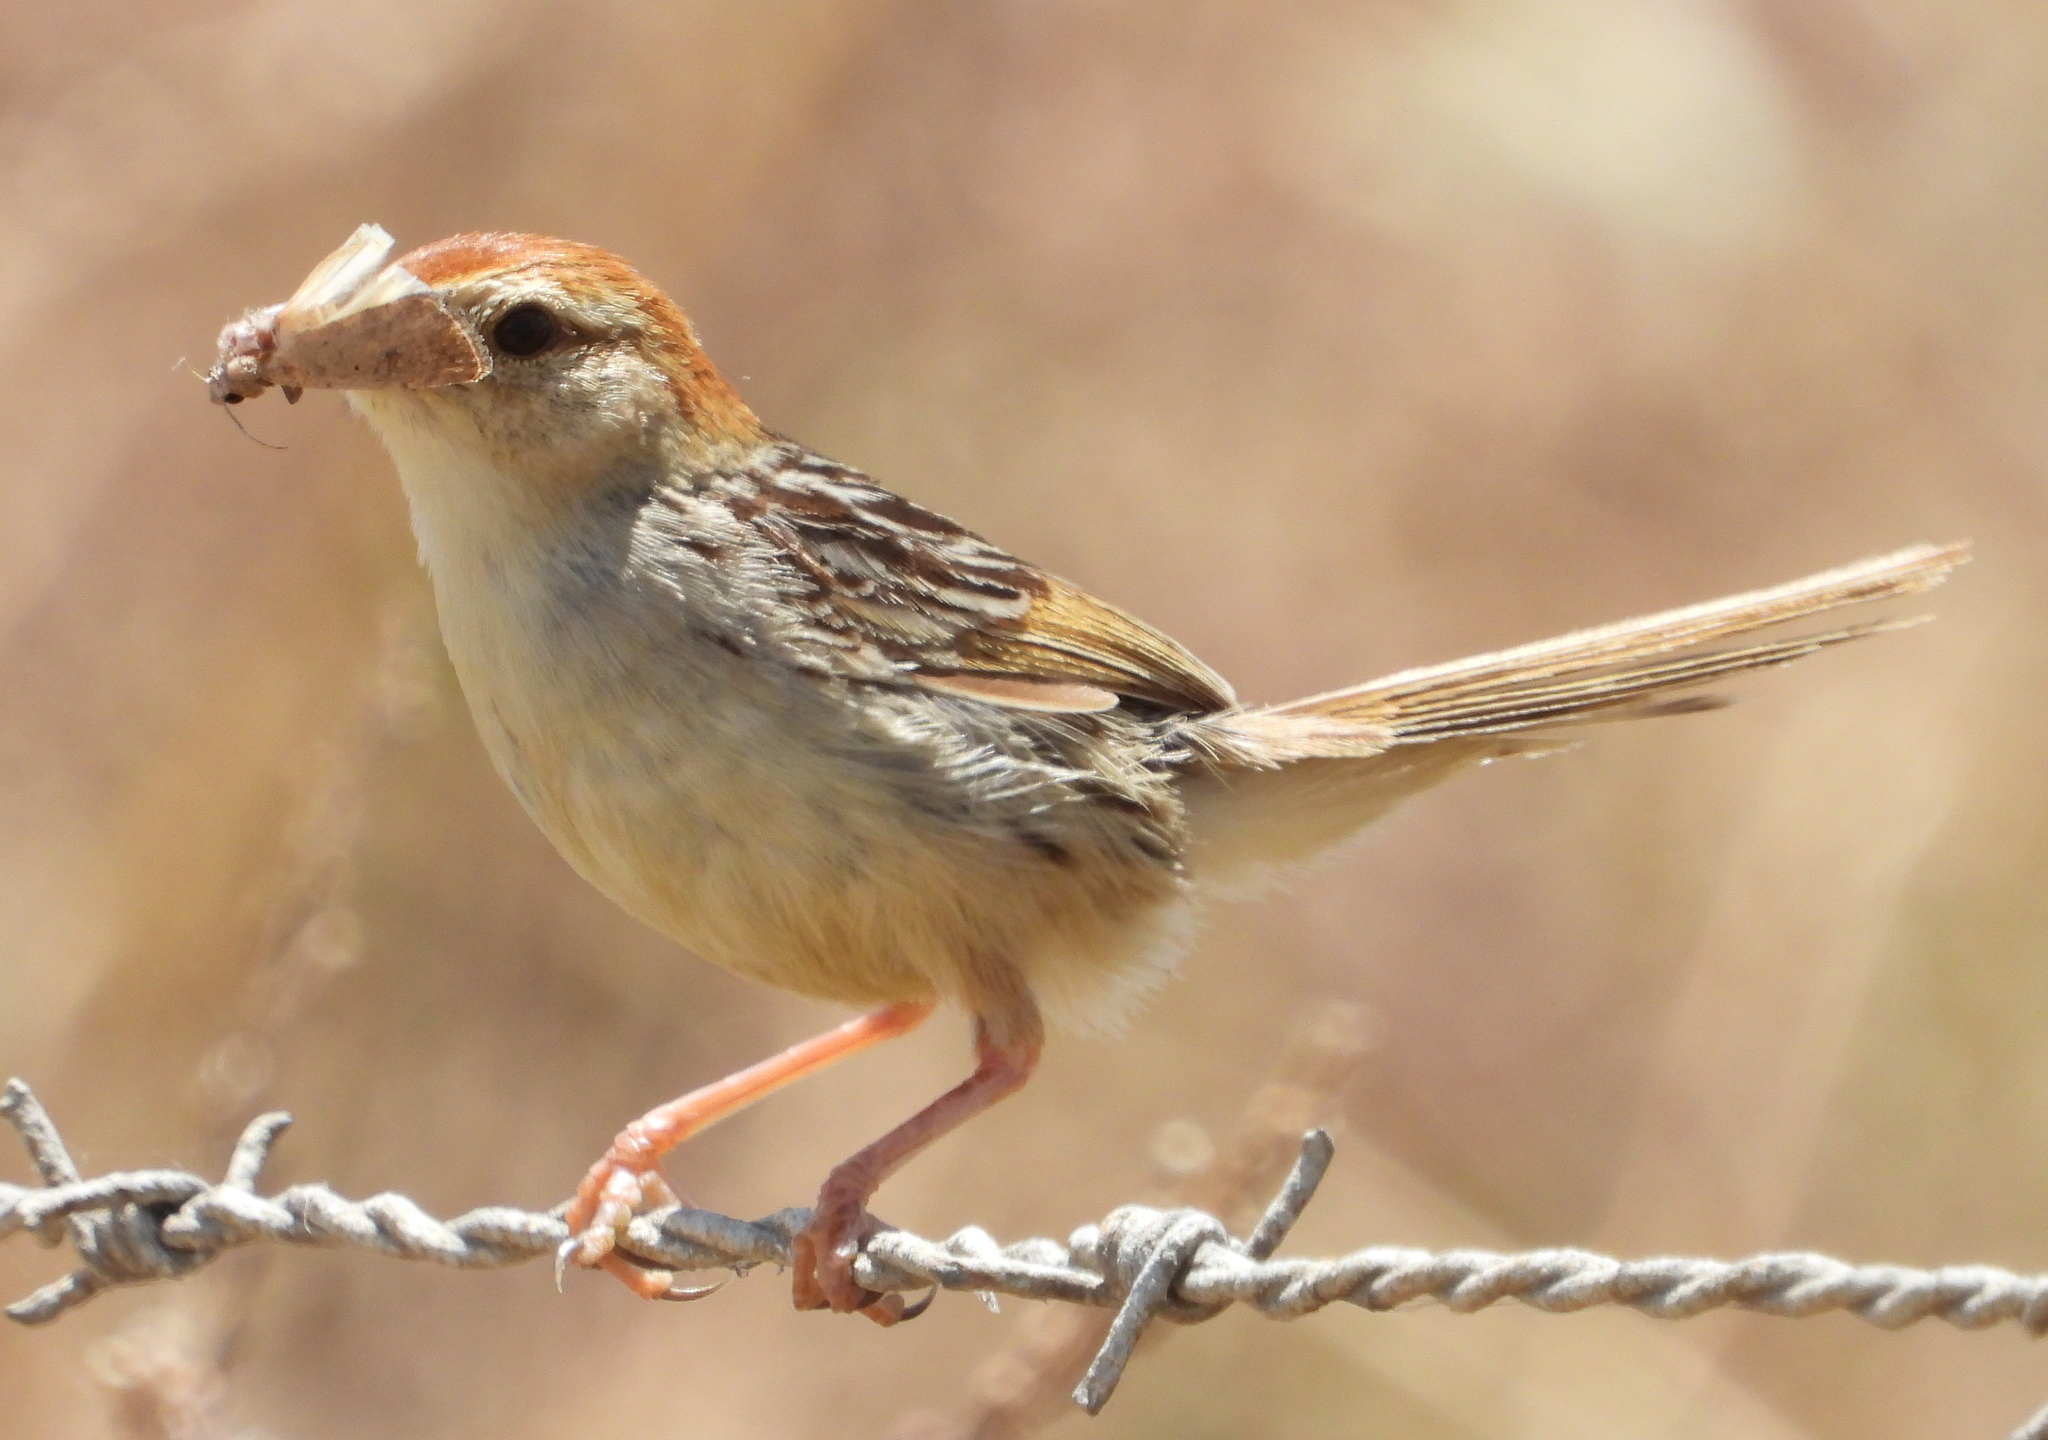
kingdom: Animalia
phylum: Chordata
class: Aves
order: Passeriformes
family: Cisticolidae
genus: Cisticola
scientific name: Cisticola tinniens
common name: Levaillant's cisticola
